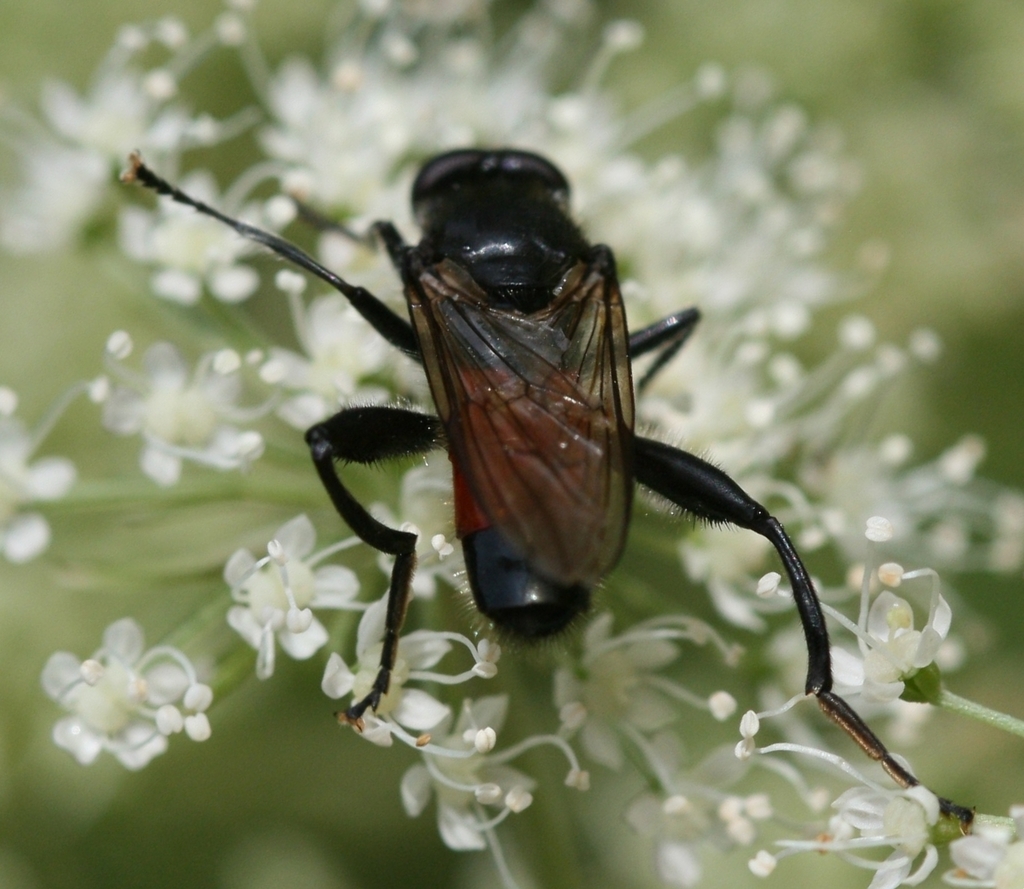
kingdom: Animalia
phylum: Arthropoda
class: Insecta
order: Diptera
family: Syrphidae
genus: Brachypalpoides
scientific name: Brachypalpoides lenta
